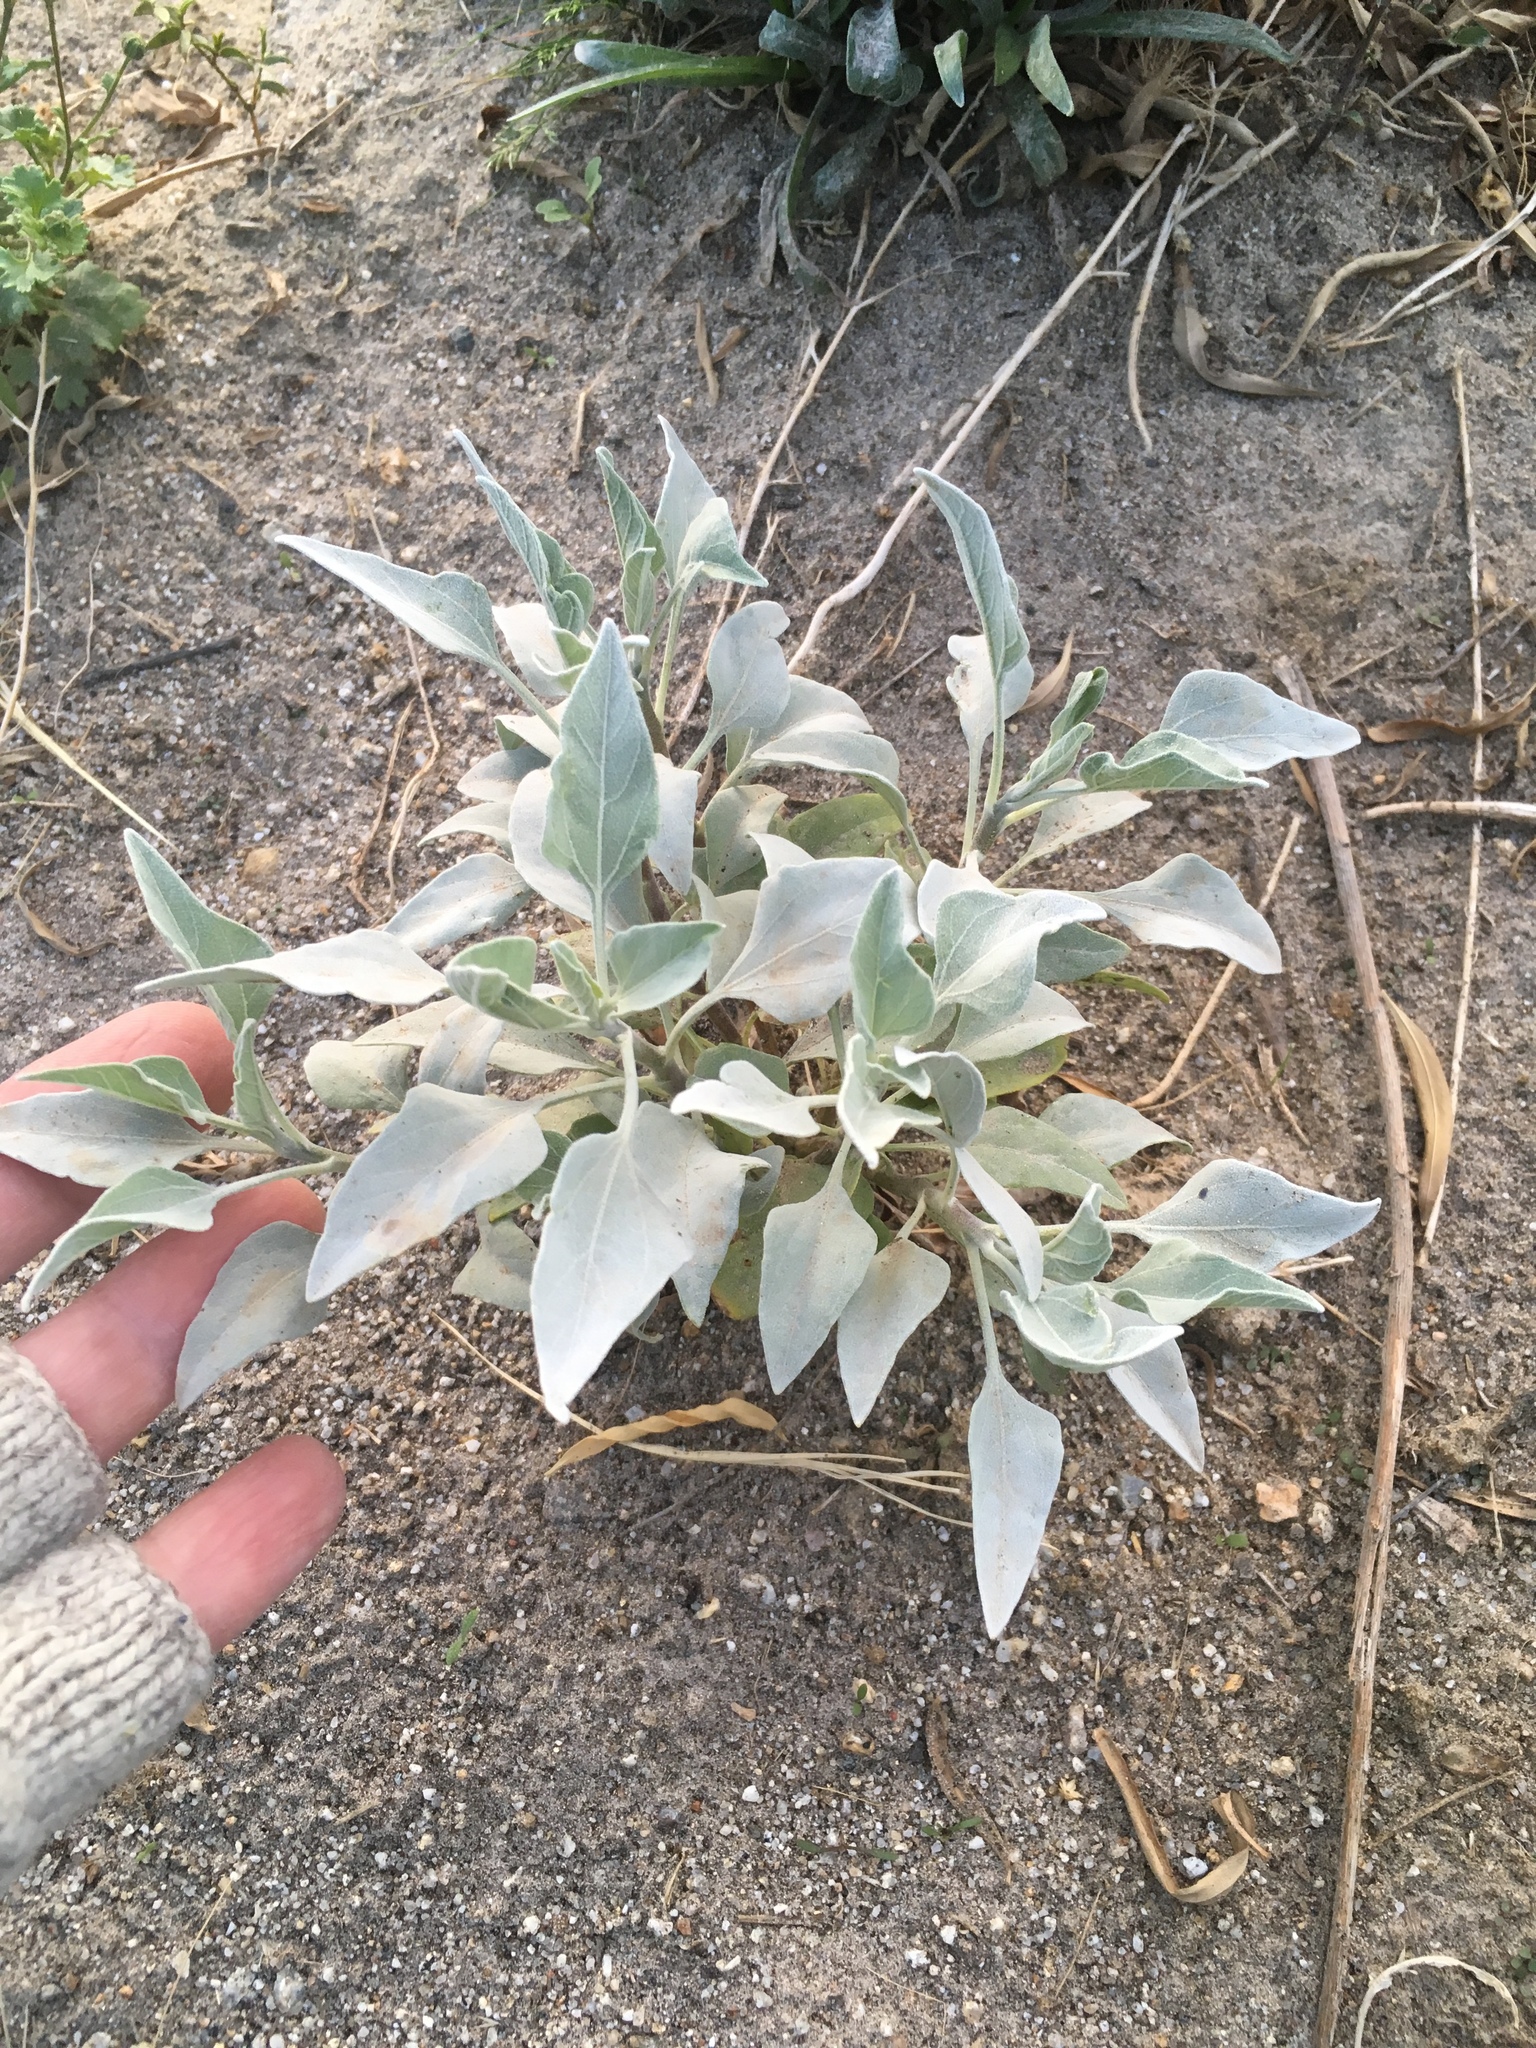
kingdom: Plantae
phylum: Tracheophyta
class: Magnoliopsida
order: Asterales
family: Asteraceae
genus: Encelia
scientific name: Encelia farinosa
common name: Brittlebush
